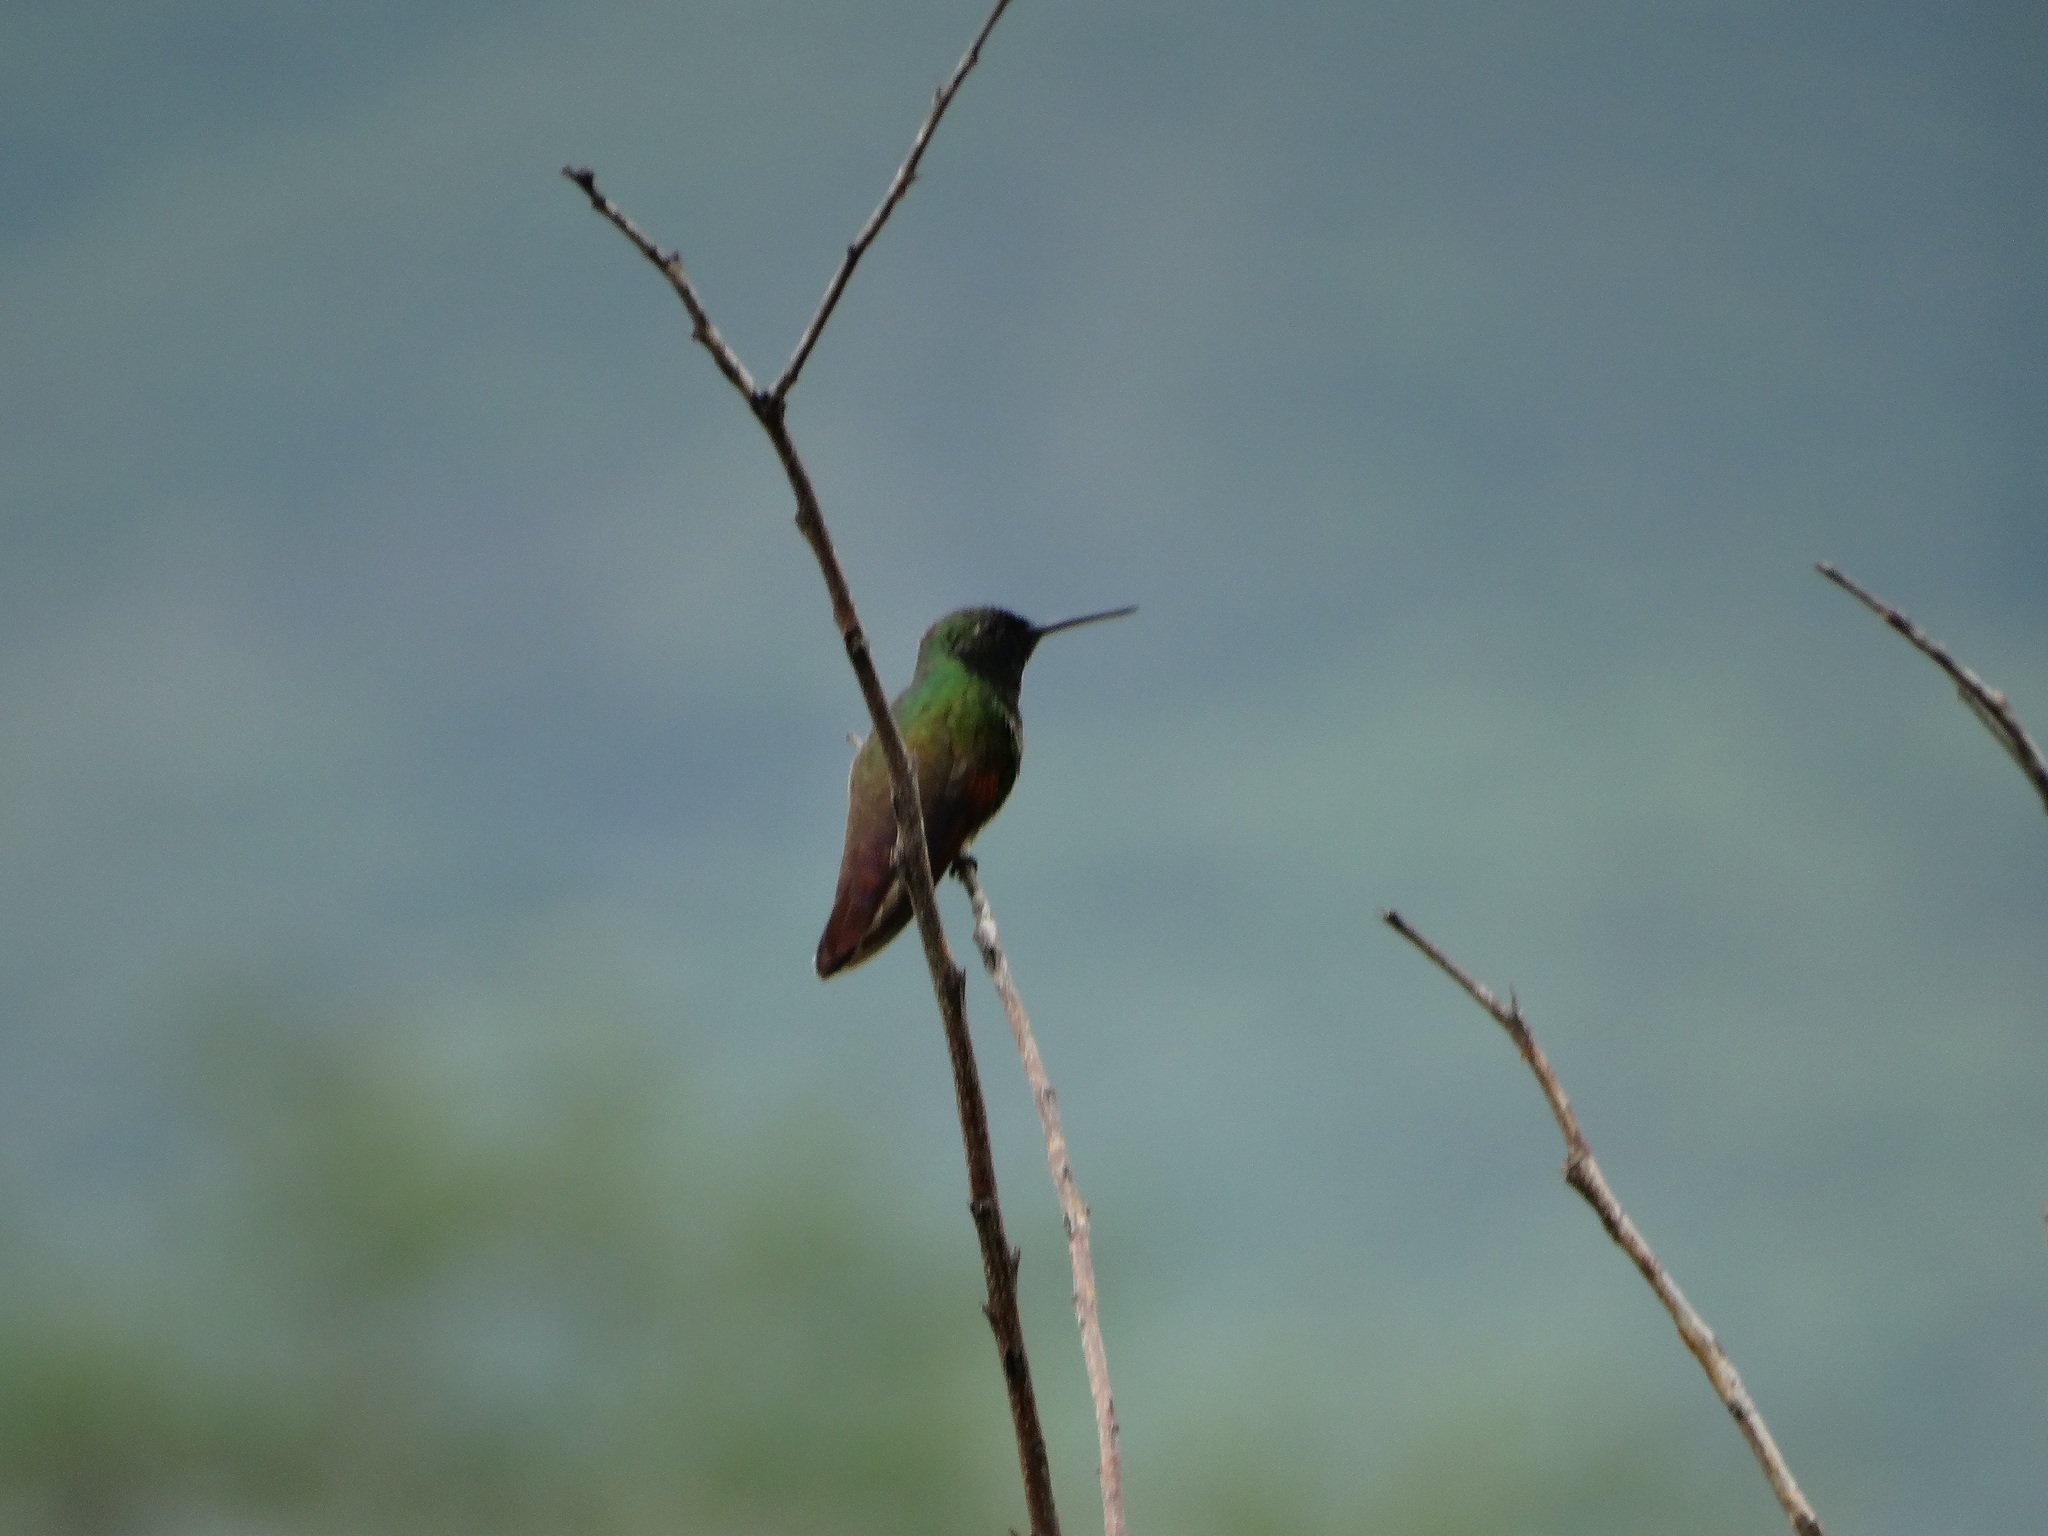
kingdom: Animalia
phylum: Chordata
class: Aves
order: Apodiformes
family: Trochilidae
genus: Saucerottia
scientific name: Saucerottia beryllina
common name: Berylline hummingbird
